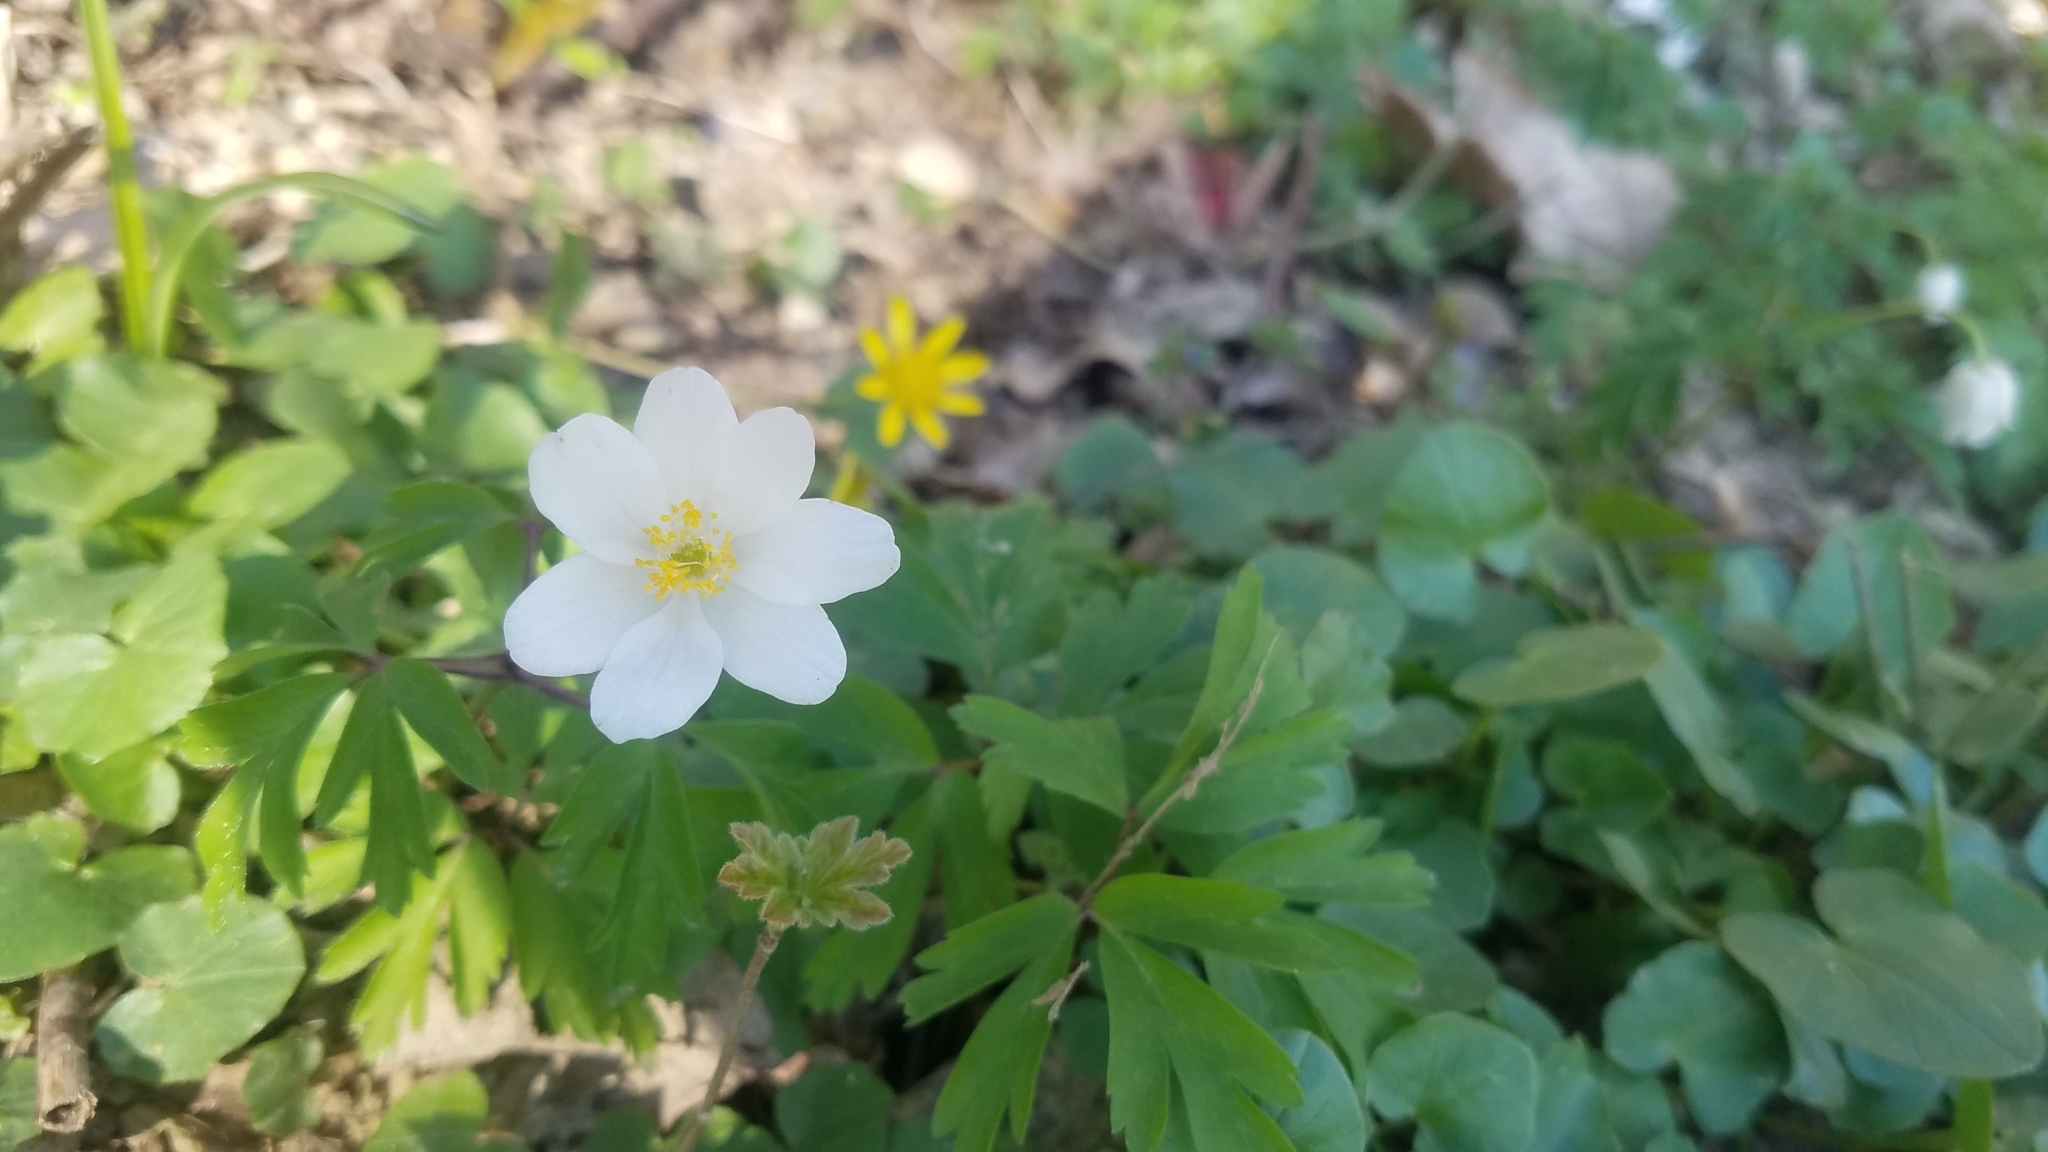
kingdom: Plantae
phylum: Tracheophyta
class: Magnoliopsida
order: Ranunculales
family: Ranunculaceae
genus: Anemone
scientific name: Anemone nemorosa
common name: Wood anemone
